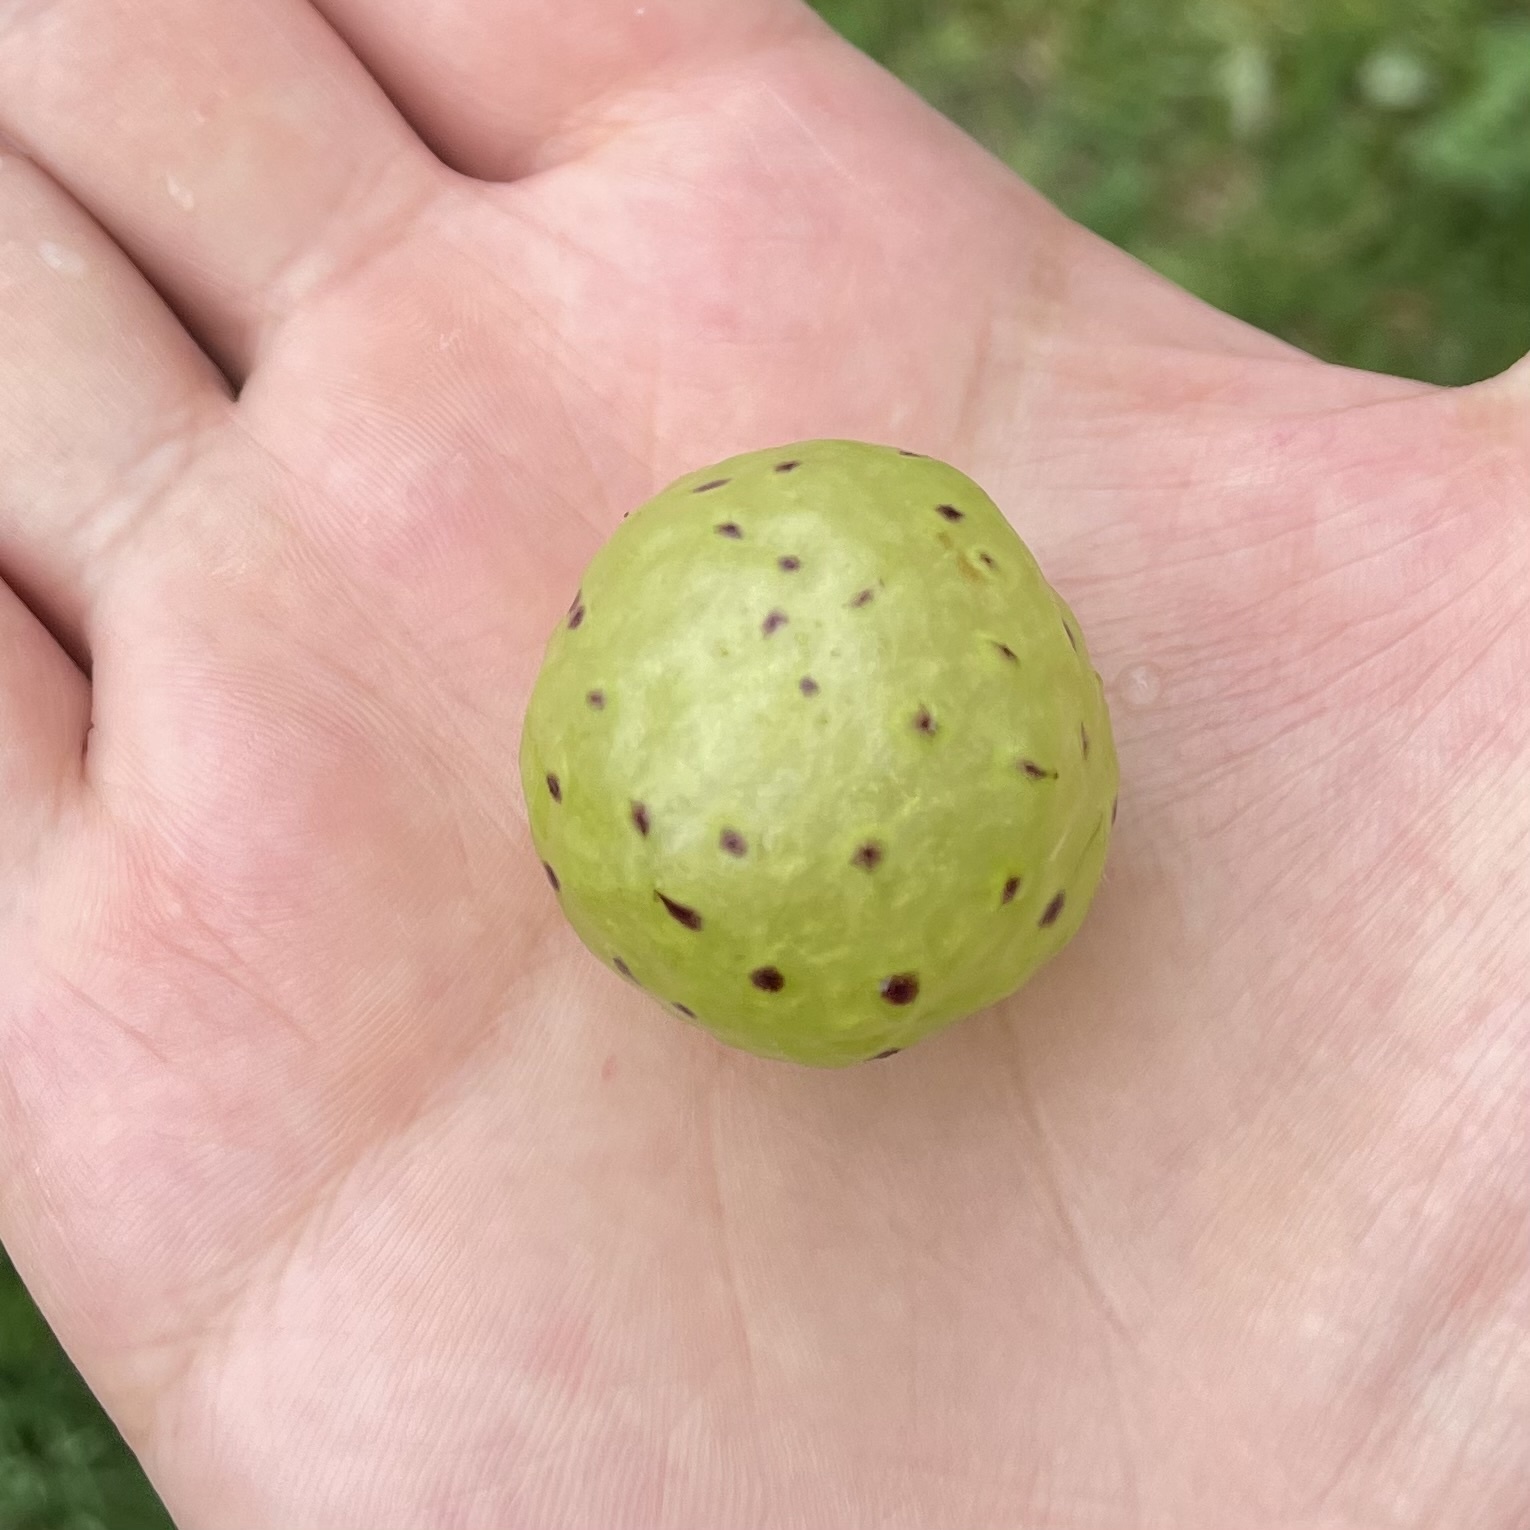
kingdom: Animalia
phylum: Arthropoda
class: Insecta
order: Hymenoptera
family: Cynipidae
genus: Amphibolips
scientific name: Amphibolips
